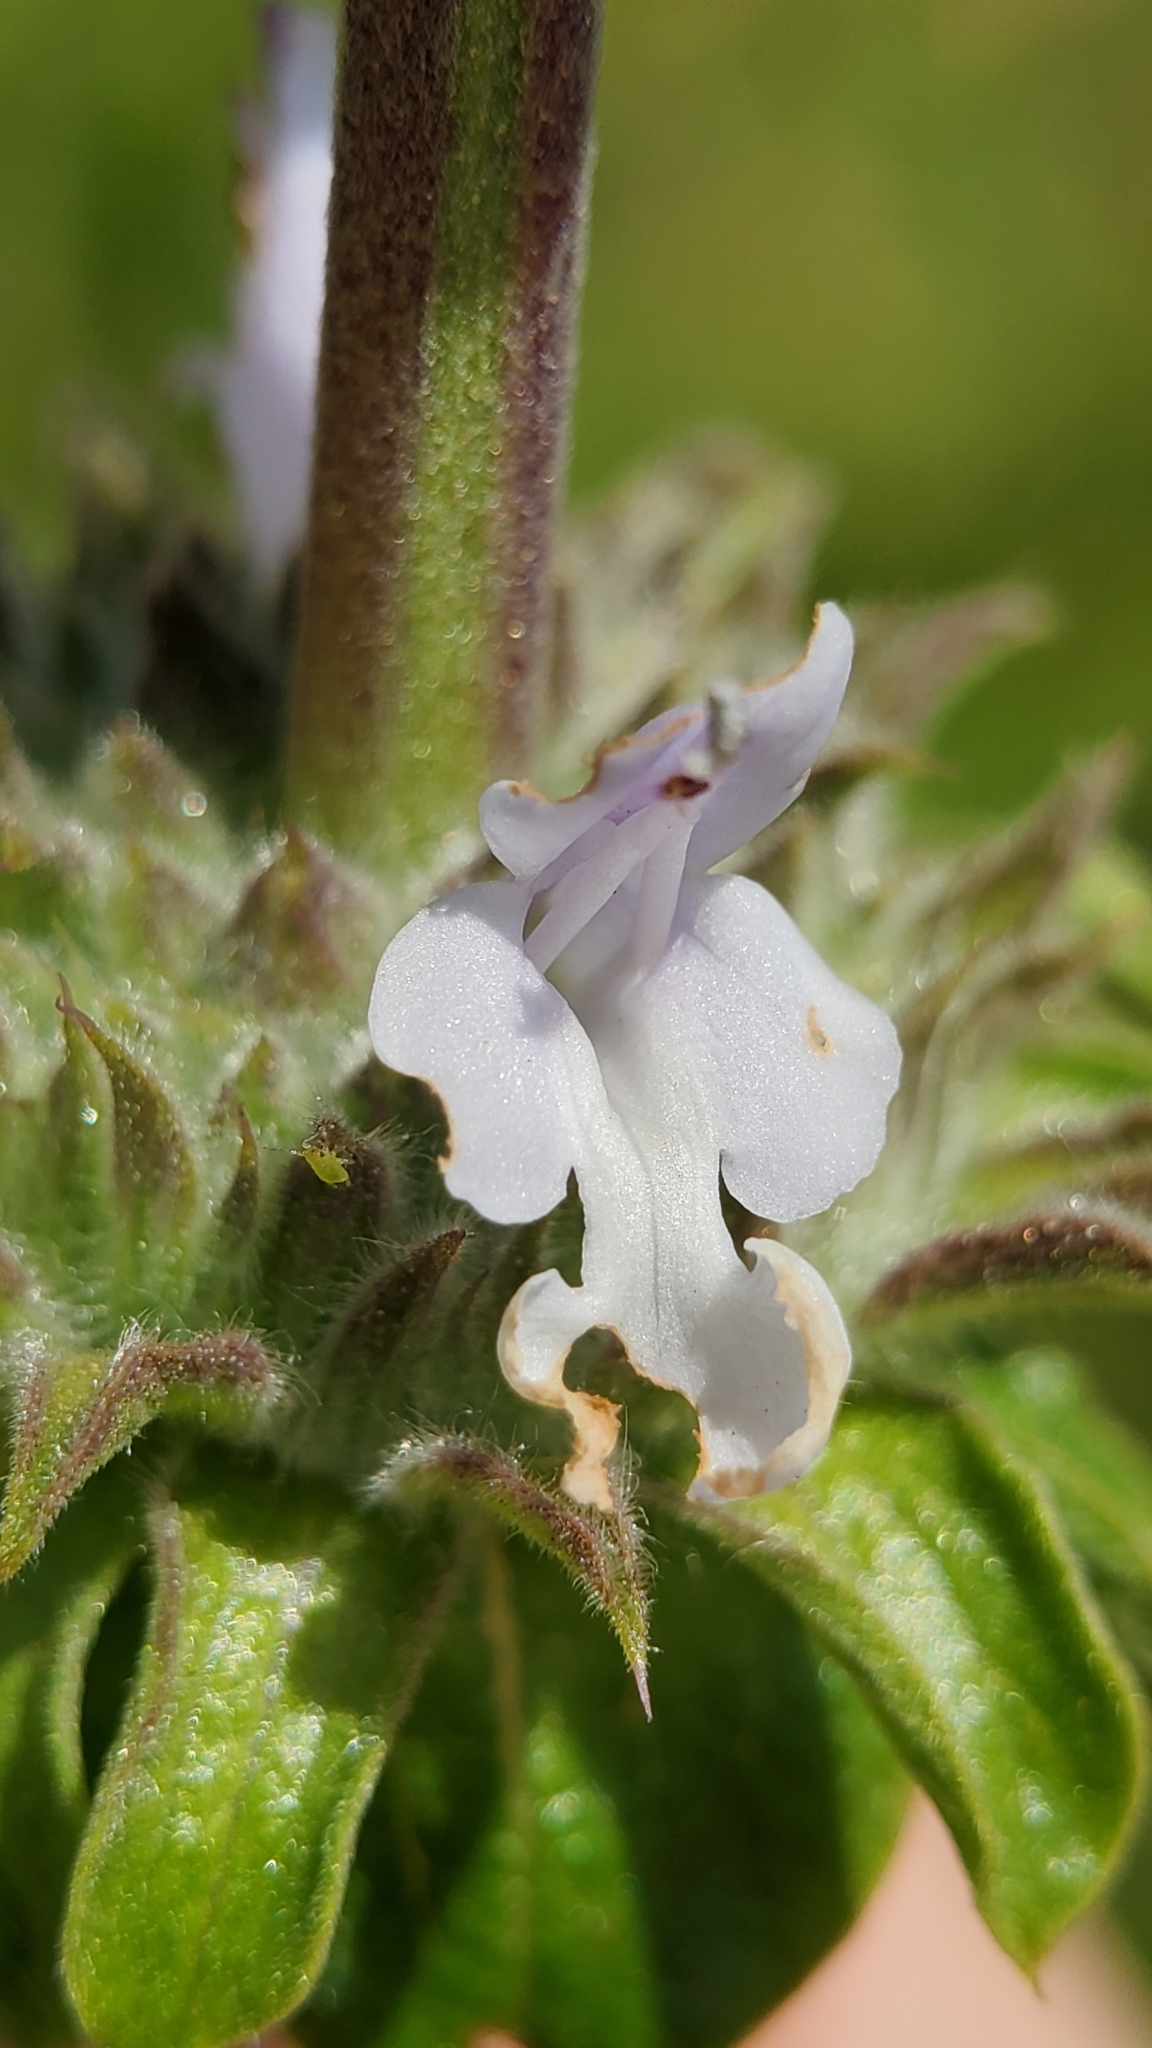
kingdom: Plantae
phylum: Tracheophyta
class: Magnoliopsida
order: Lamiales
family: Lamiaceae
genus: Salvia
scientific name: Salvia mellifera
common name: Black sage
